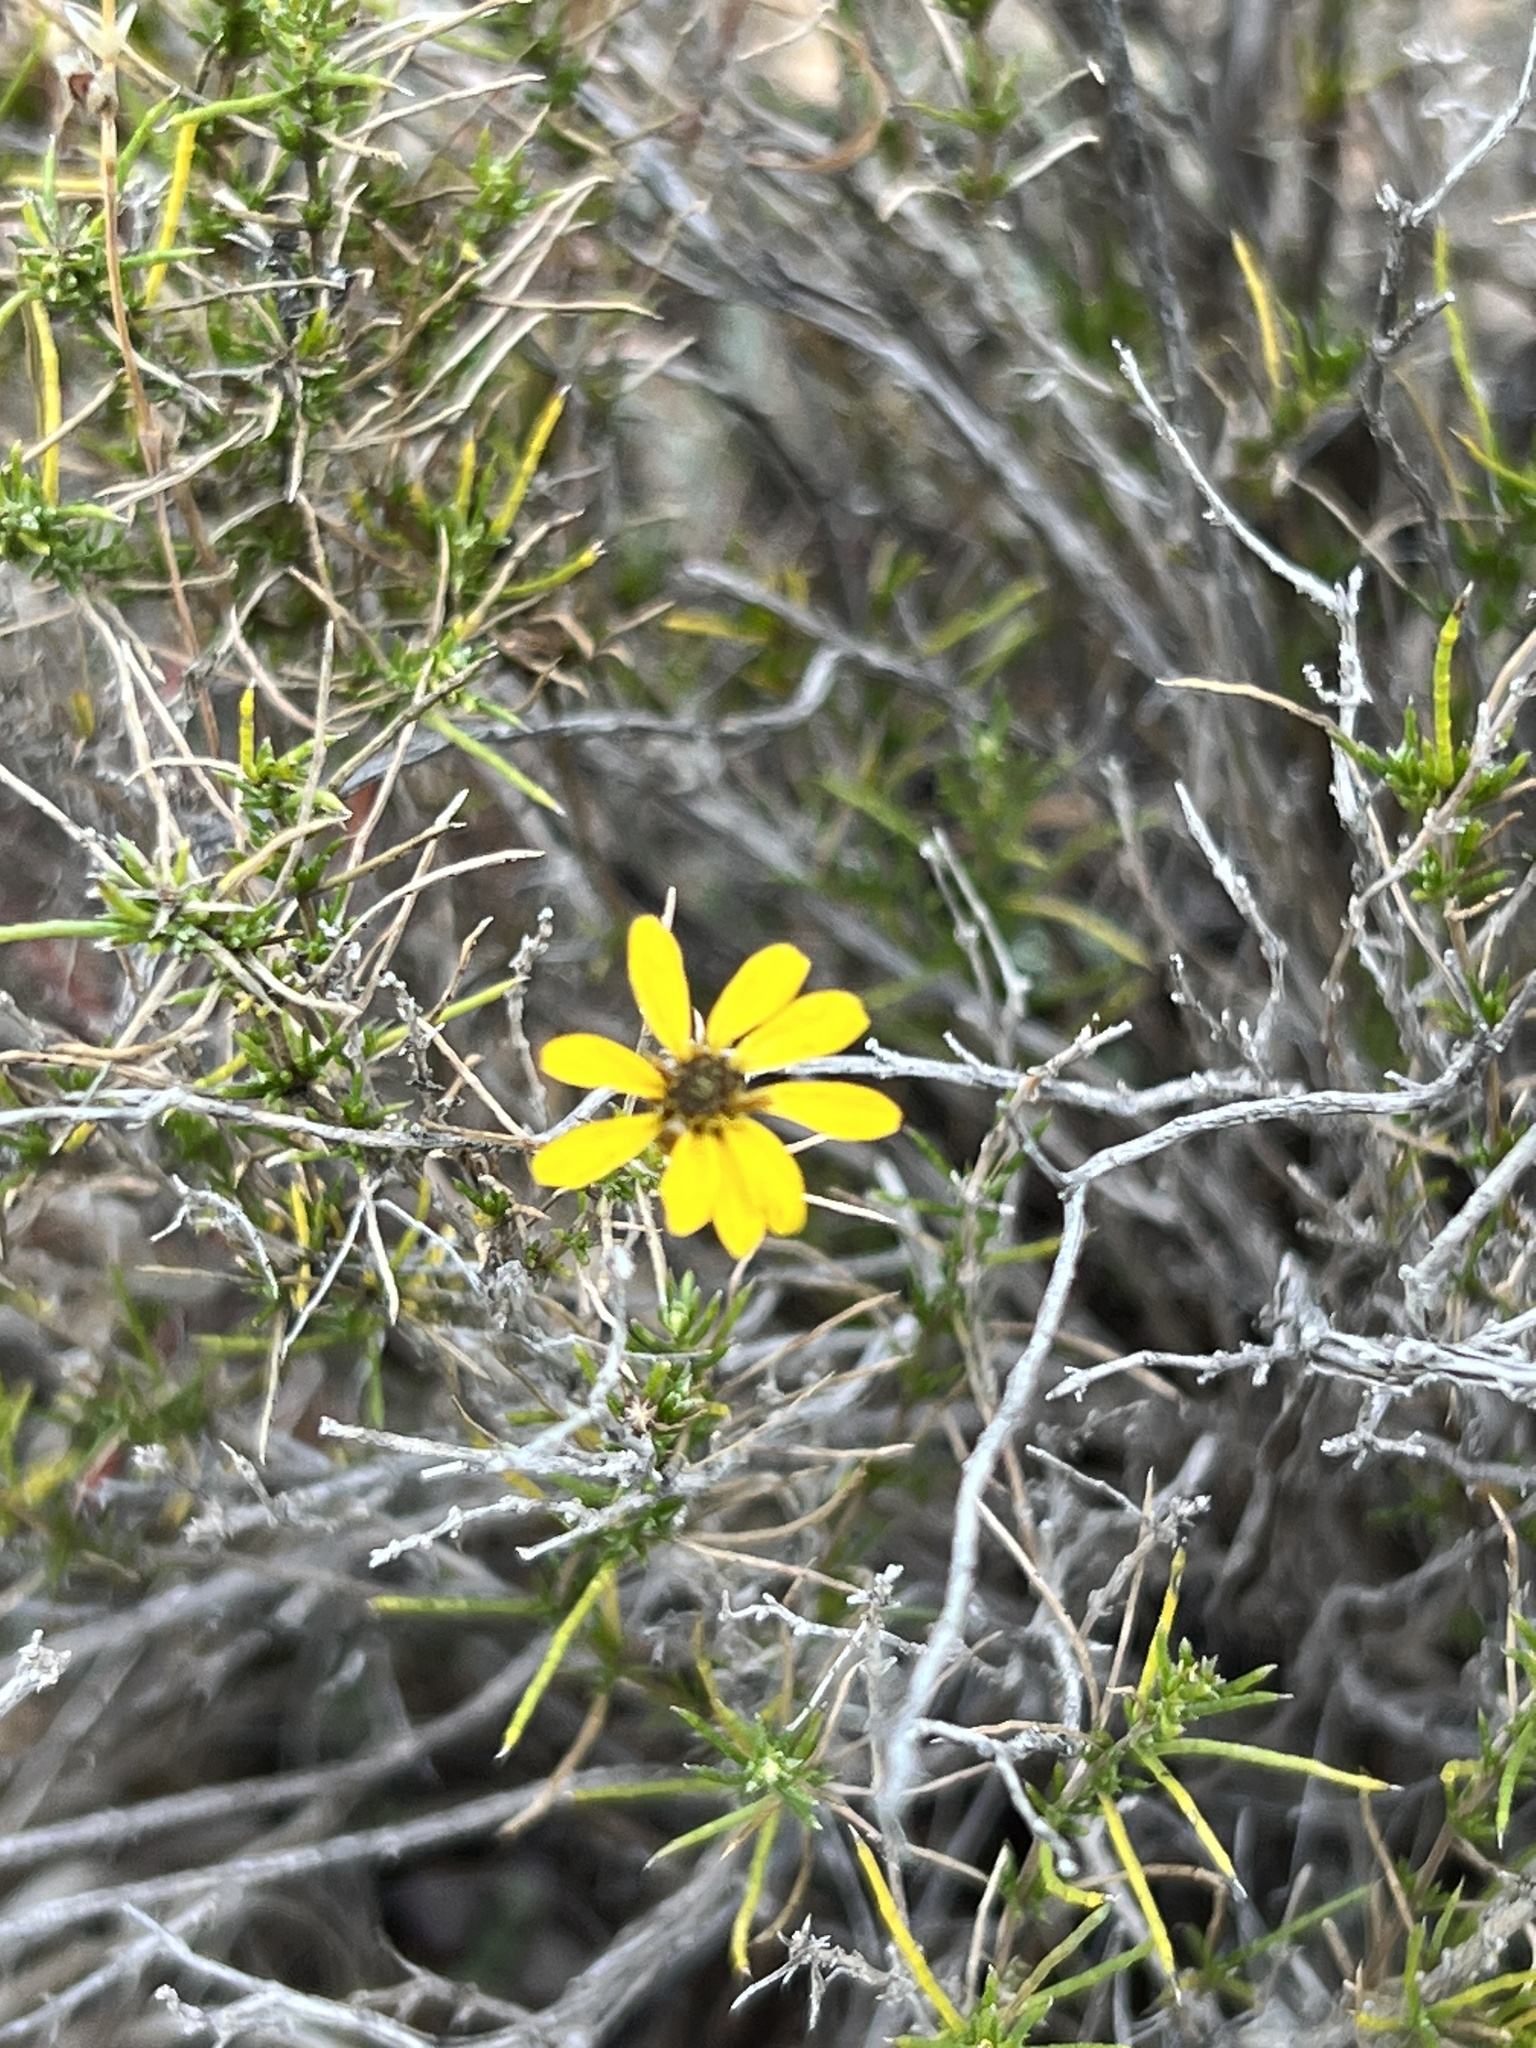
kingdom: Plantae
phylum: Tracheophyta
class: Magnoliopsida
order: Asterales
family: Asteraceae
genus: Thymophylla
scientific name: Thymophylla acerosa
